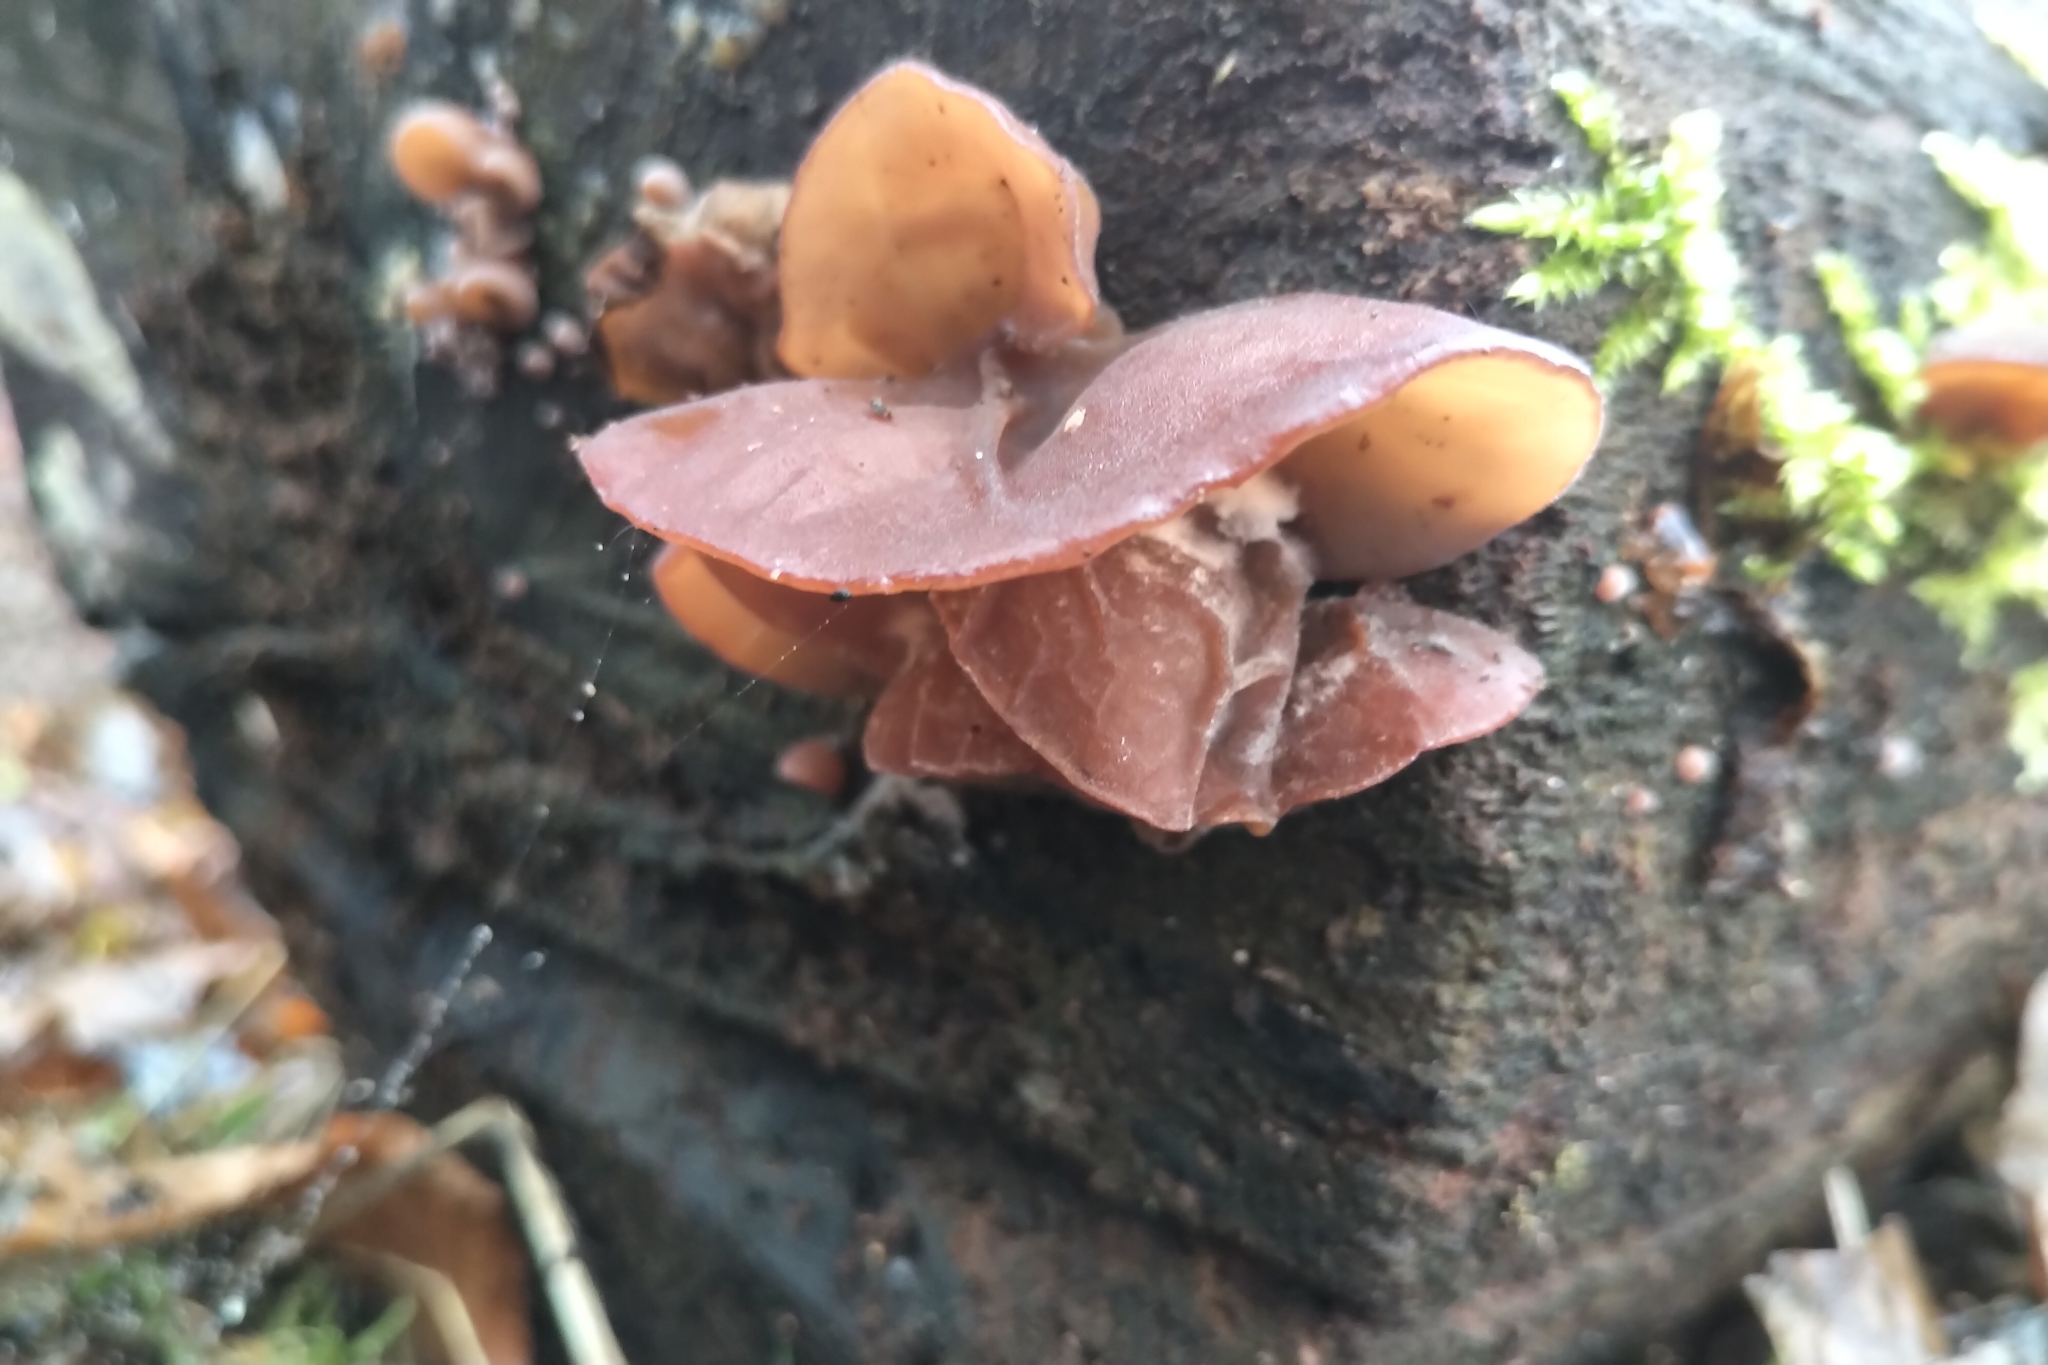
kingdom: Fungi
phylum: Basidiomycota
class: Agaricomycetes
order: Auriculariales
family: Auriculariaceae
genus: Auricularia
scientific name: Auricularia auricula-judae
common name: Jelly ear
